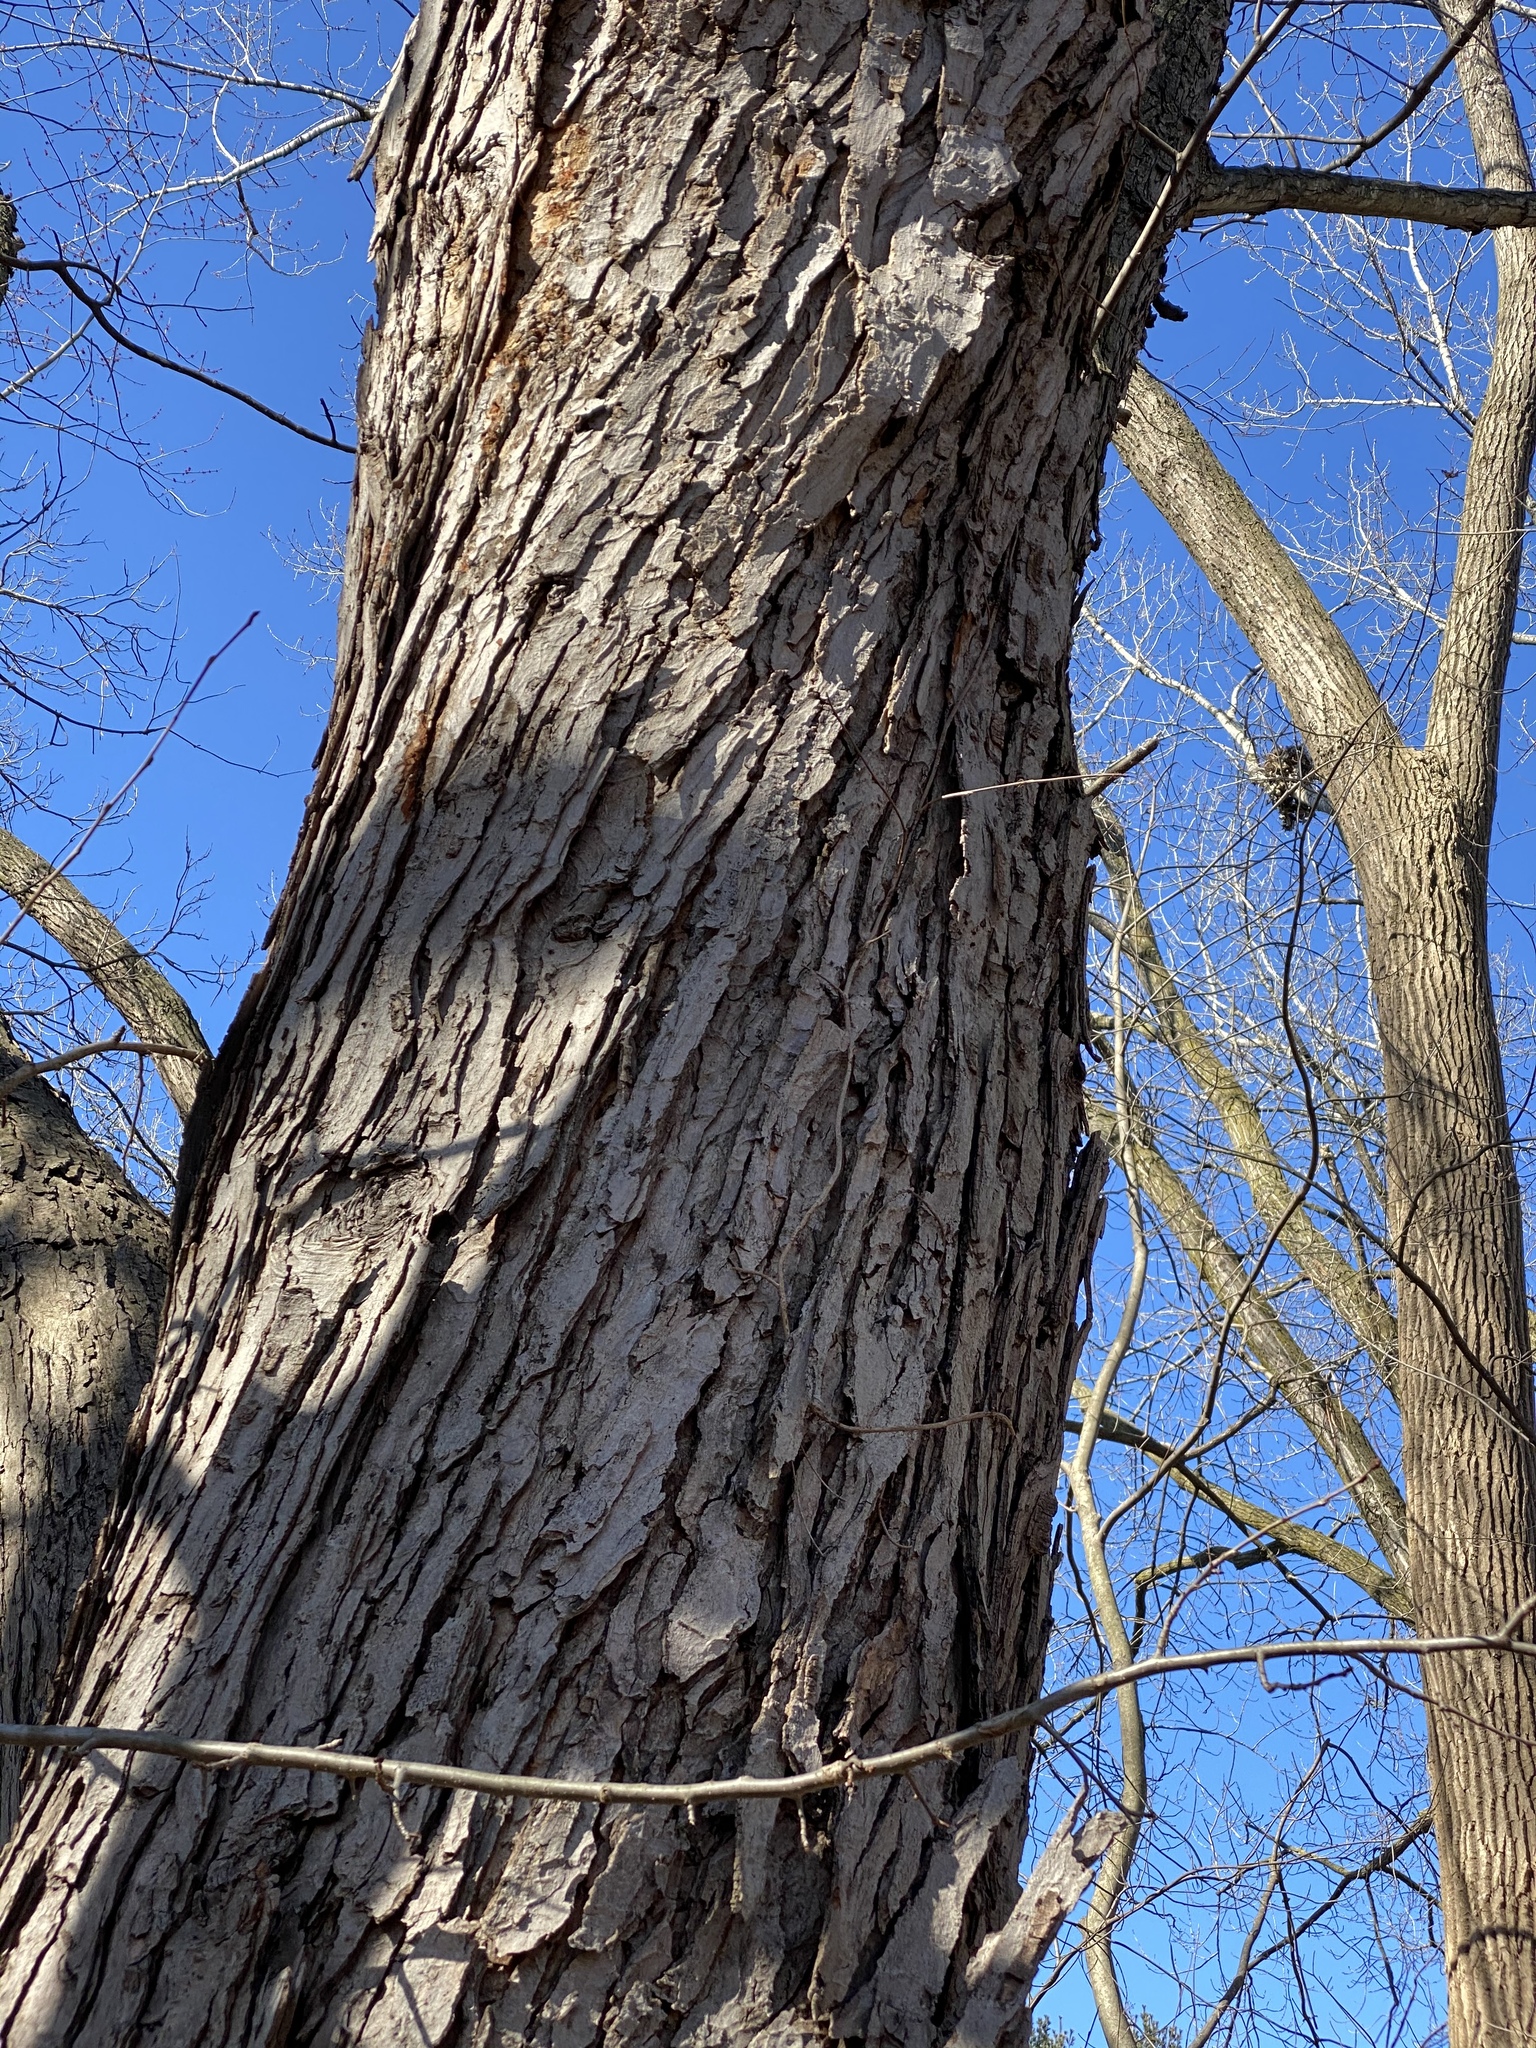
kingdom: Plantae
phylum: Tracheophyta
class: Magnoliopsida
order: Sapindales
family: Sapindaceae
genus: Acer
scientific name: Acer saccharinum
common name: Silver maple
